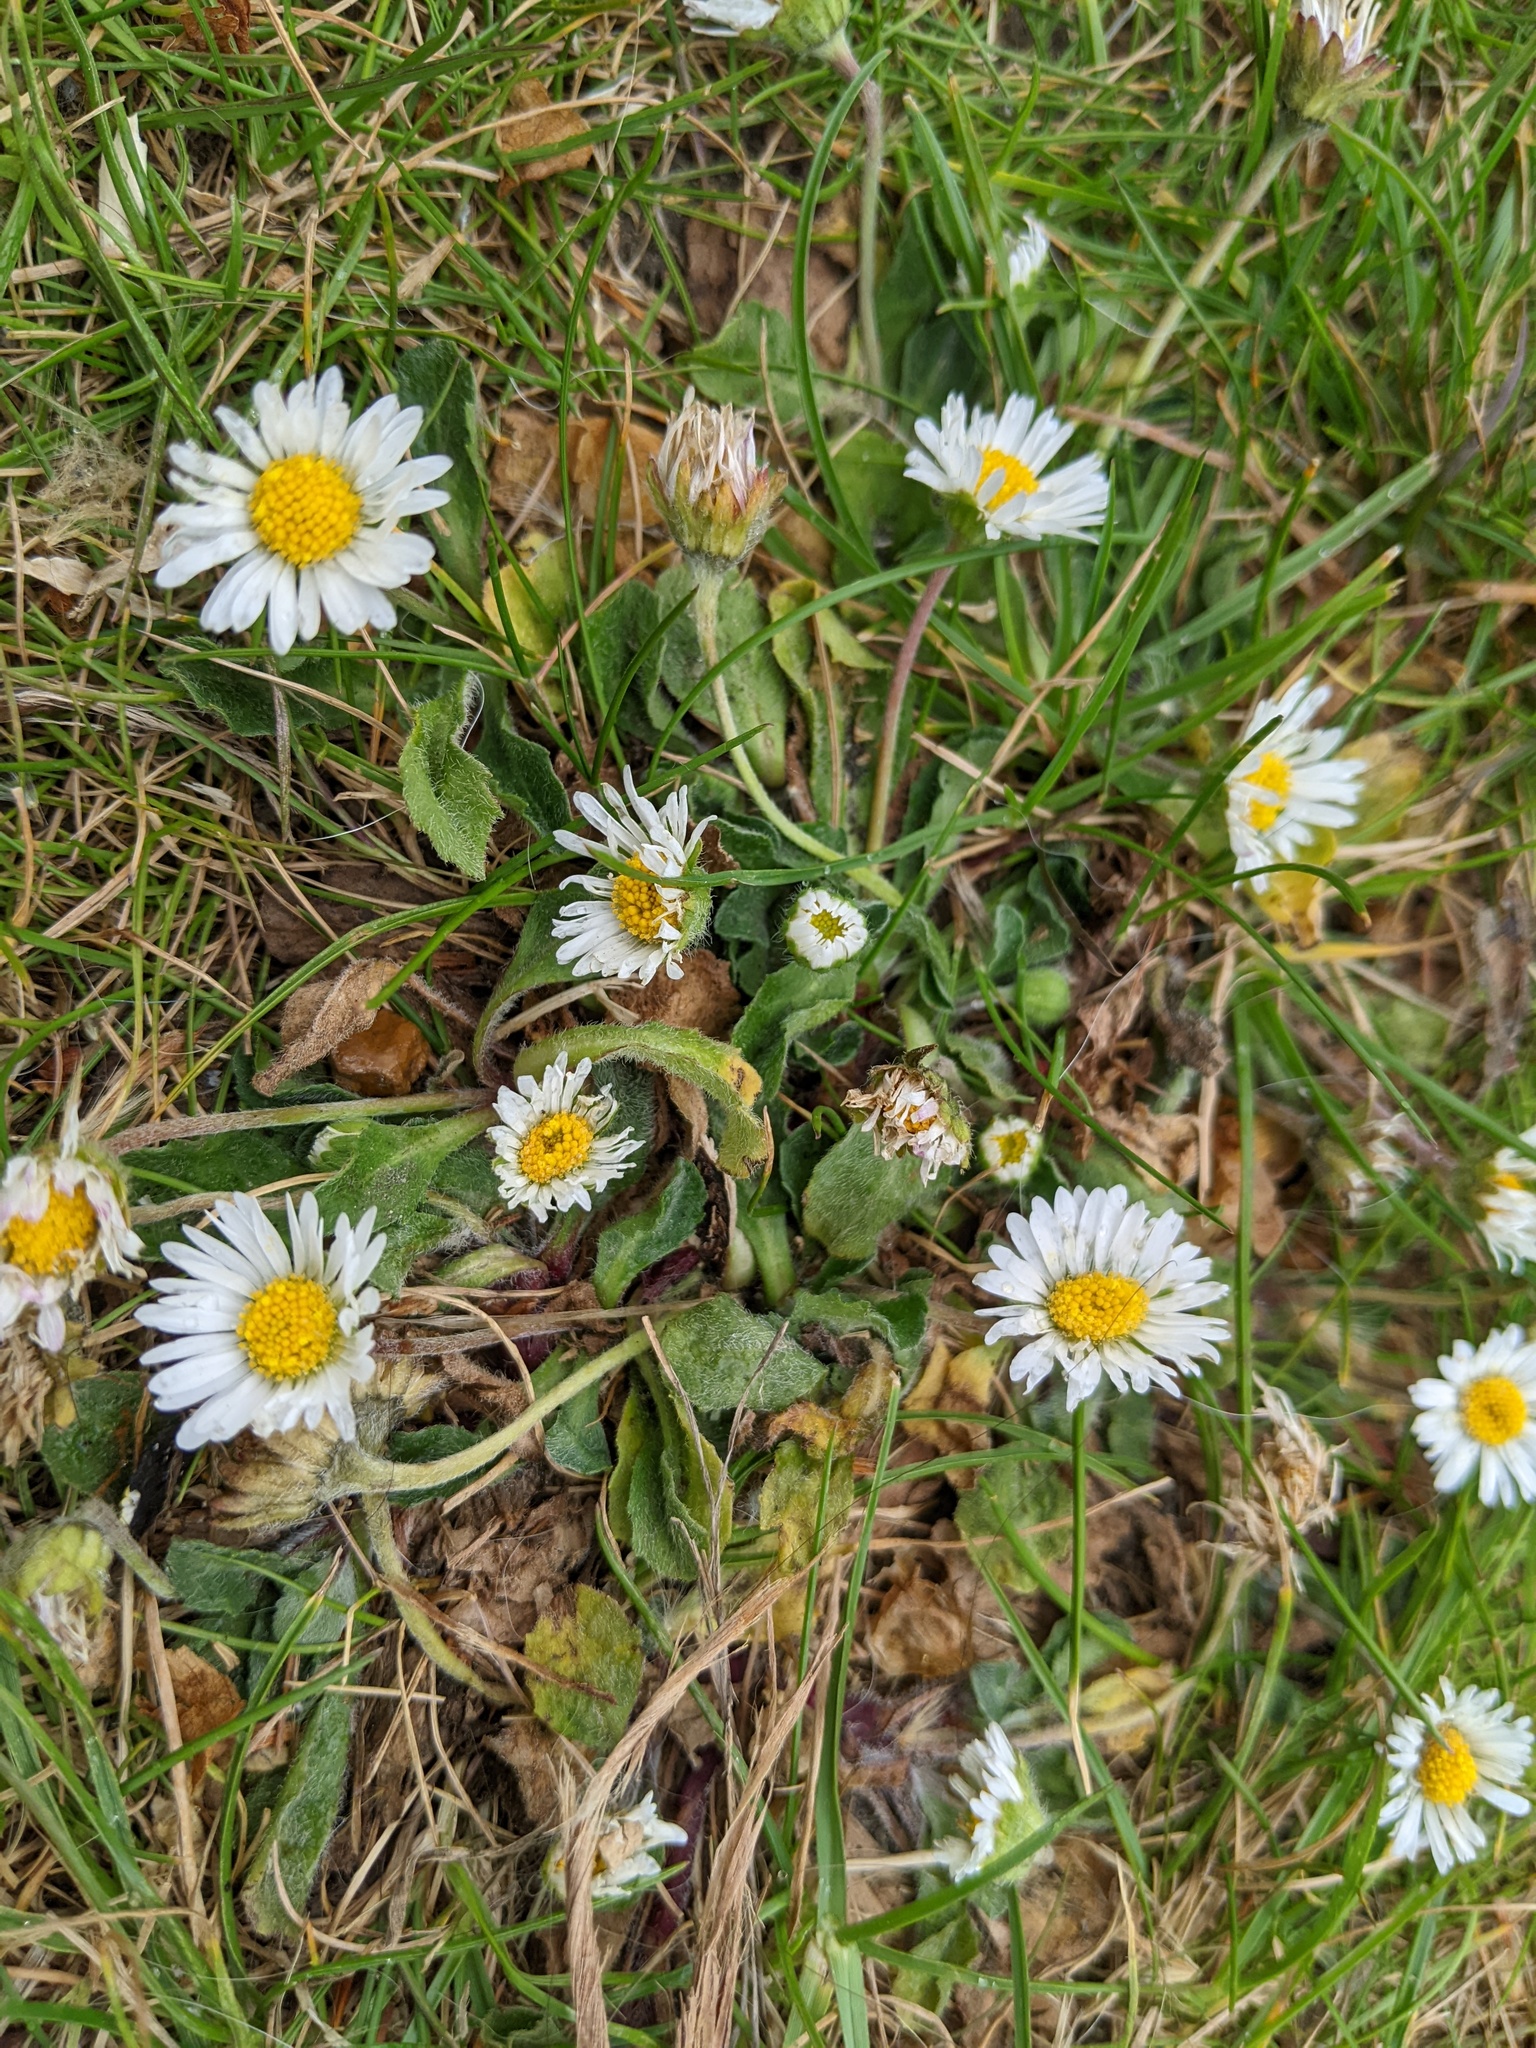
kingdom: Plantae
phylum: Tracheophyta
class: Magnoliopsida
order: Asterales
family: Asteraceae
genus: Bellis
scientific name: Bellis perennis
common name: Lawndaisy
